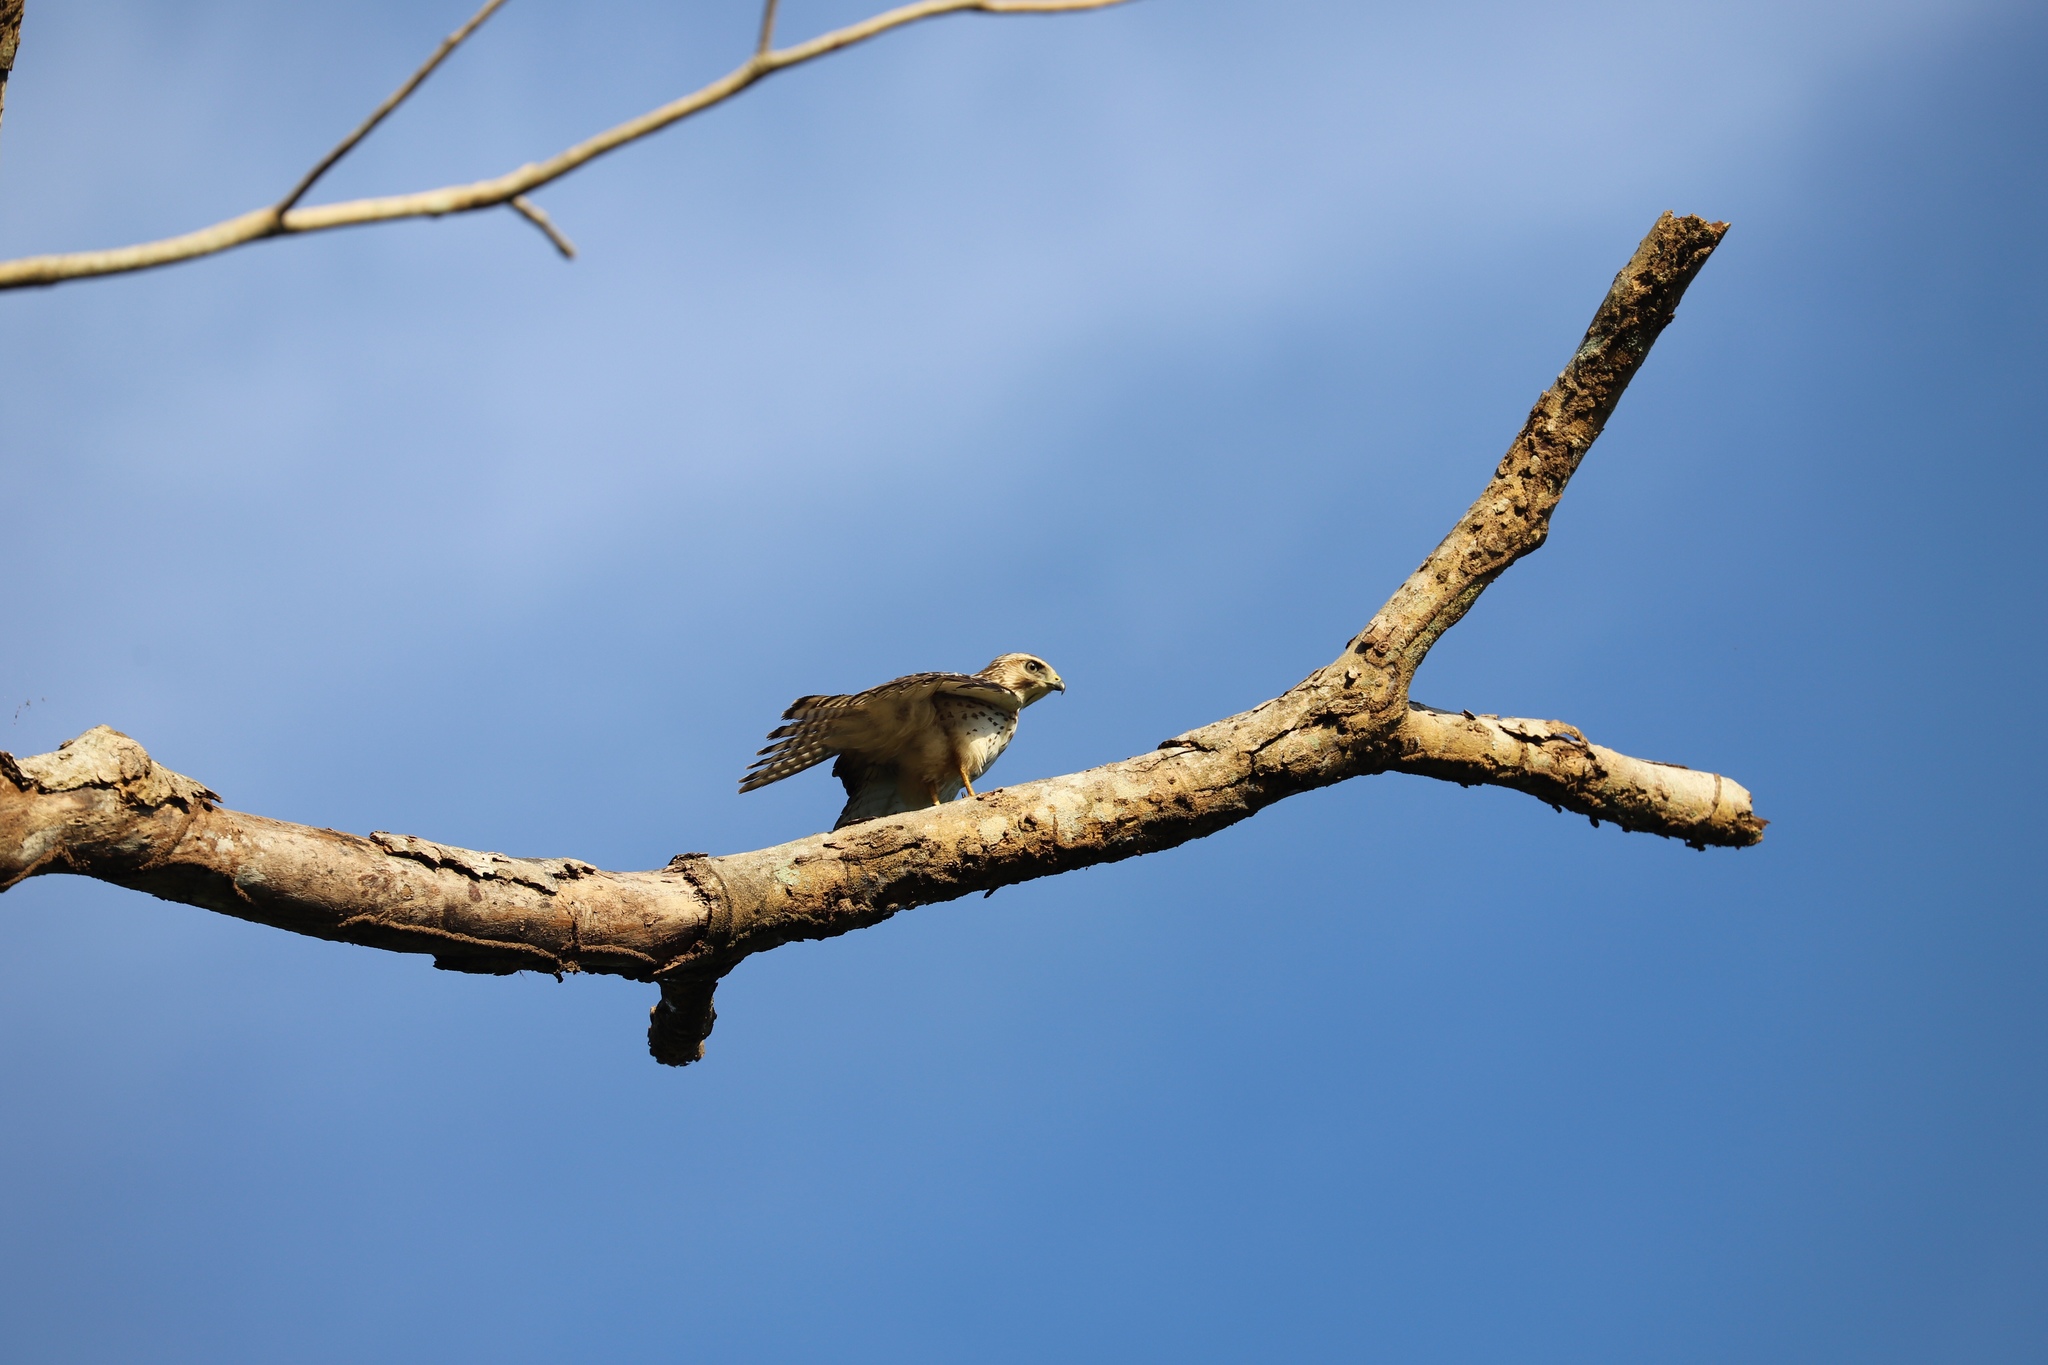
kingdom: Animalia
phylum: Chordata
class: Aves
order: Accipitriformes
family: Accipitridae
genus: Buteo
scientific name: Buteo platypterus
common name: Broad-winged hawk
